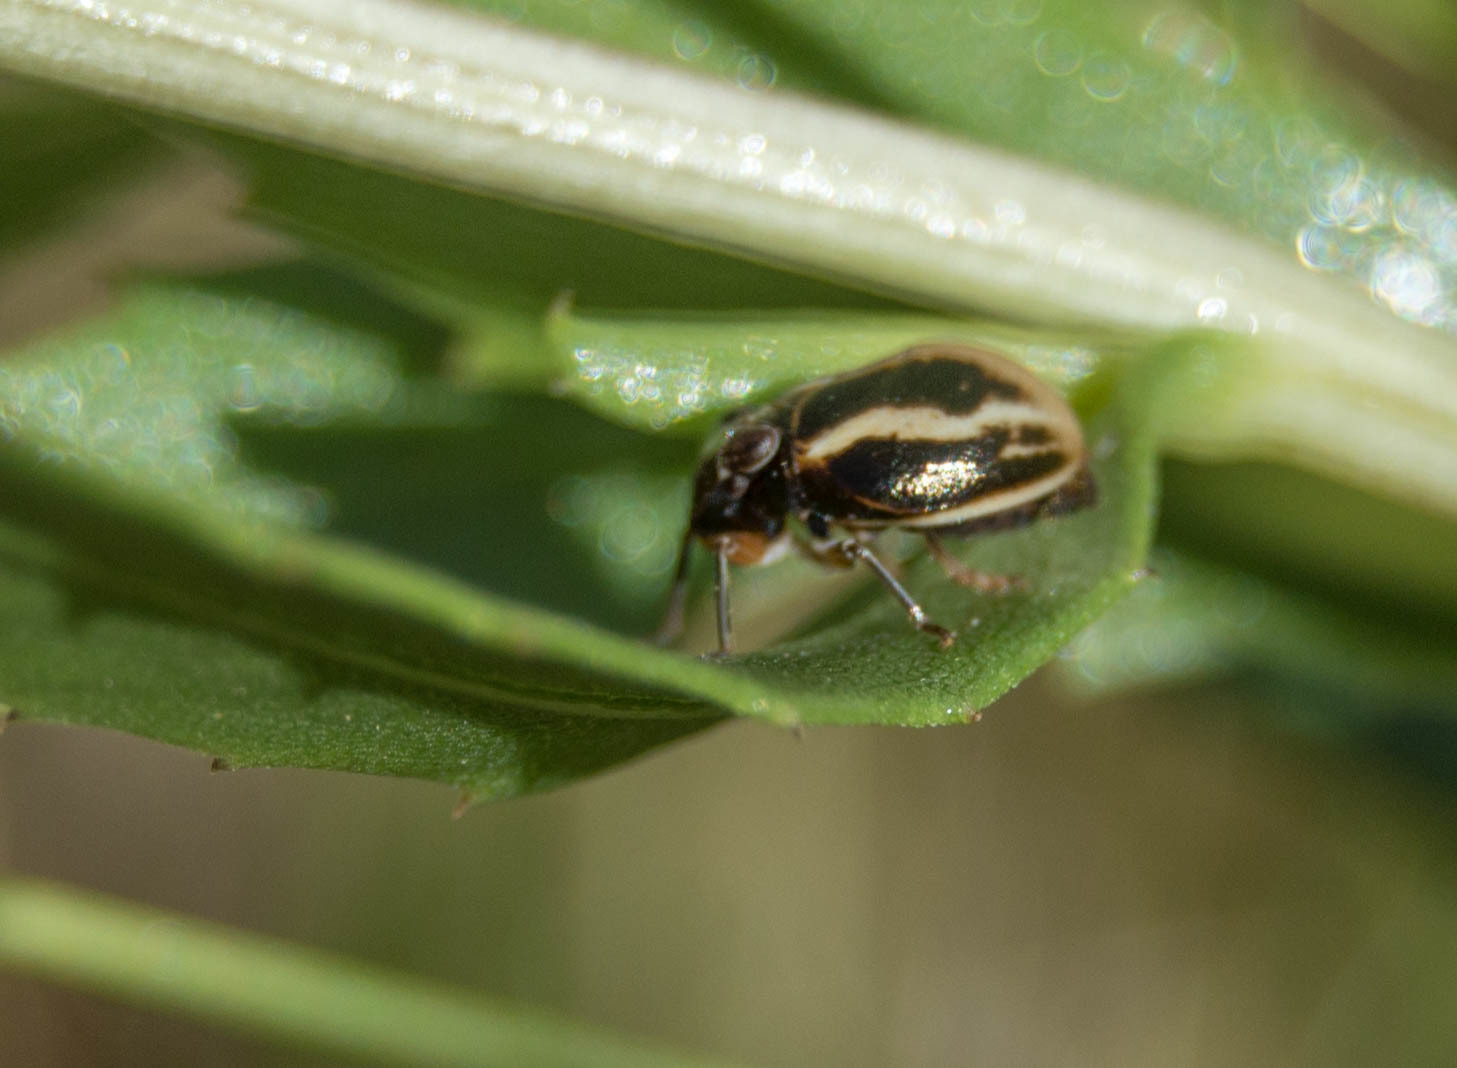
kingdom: Animalia
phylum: Arthropoda
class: Insecta
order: Hemiptera
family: Issidae
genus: Argepara
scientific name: Argepara lyra
